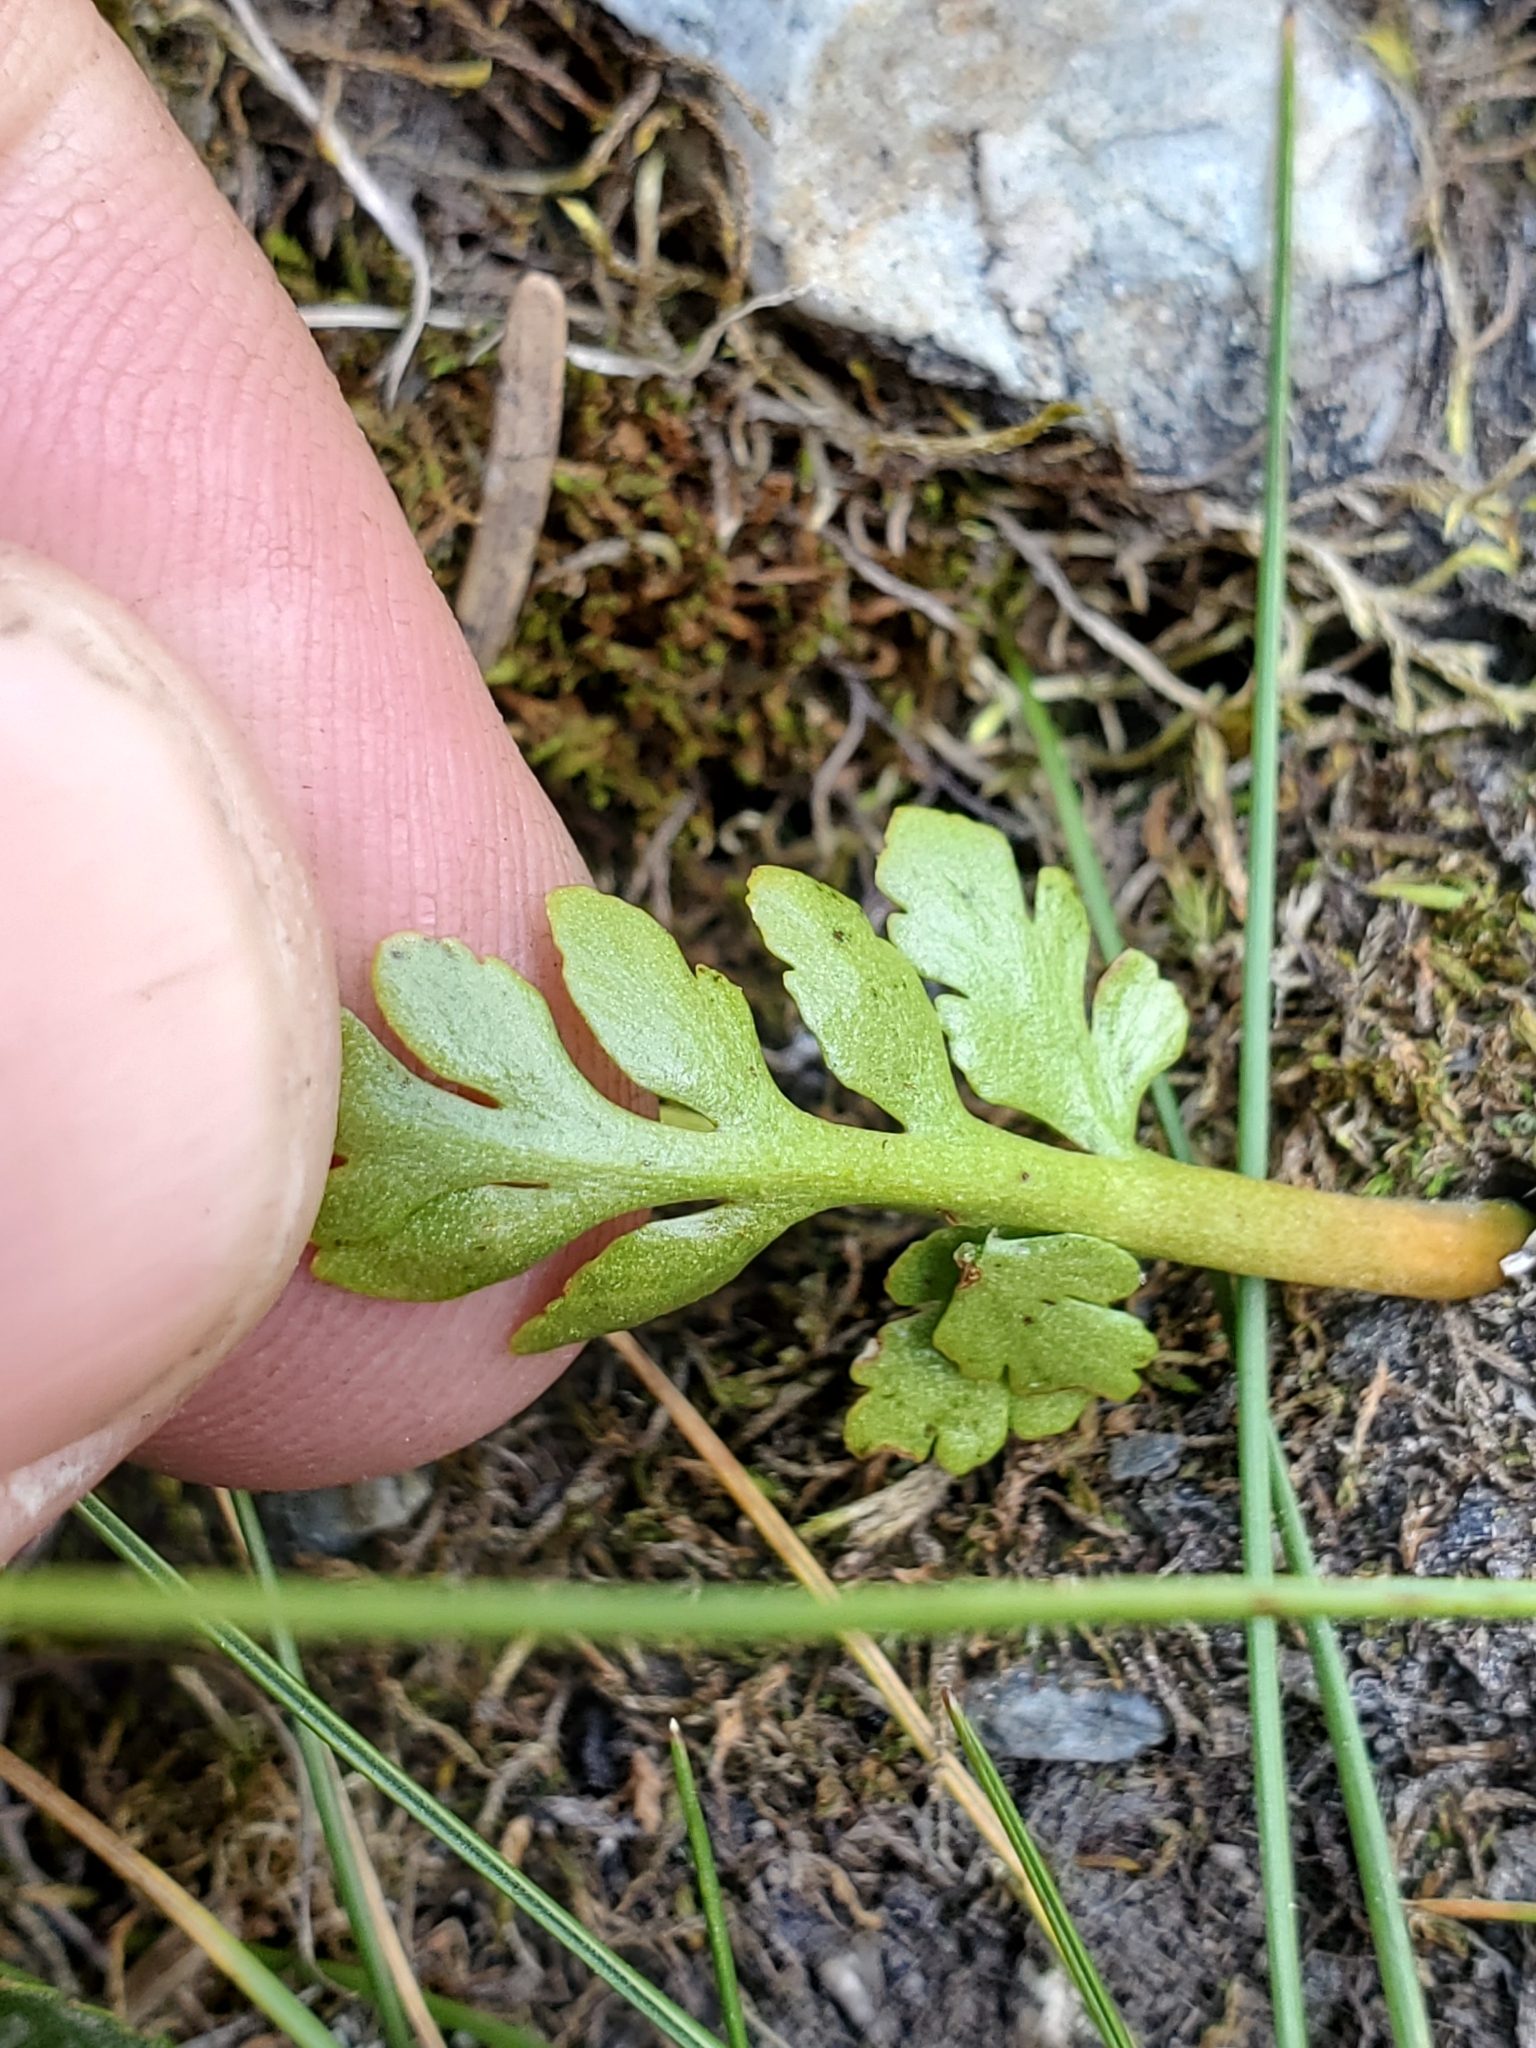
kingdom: Plantae
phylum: Tracheophyta
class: Polypodiopsida
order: Ophioglossales
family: Ophioglossaceae
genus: Botrychium
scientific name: Botrychium pinnatum
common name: Northwestern moonwort
